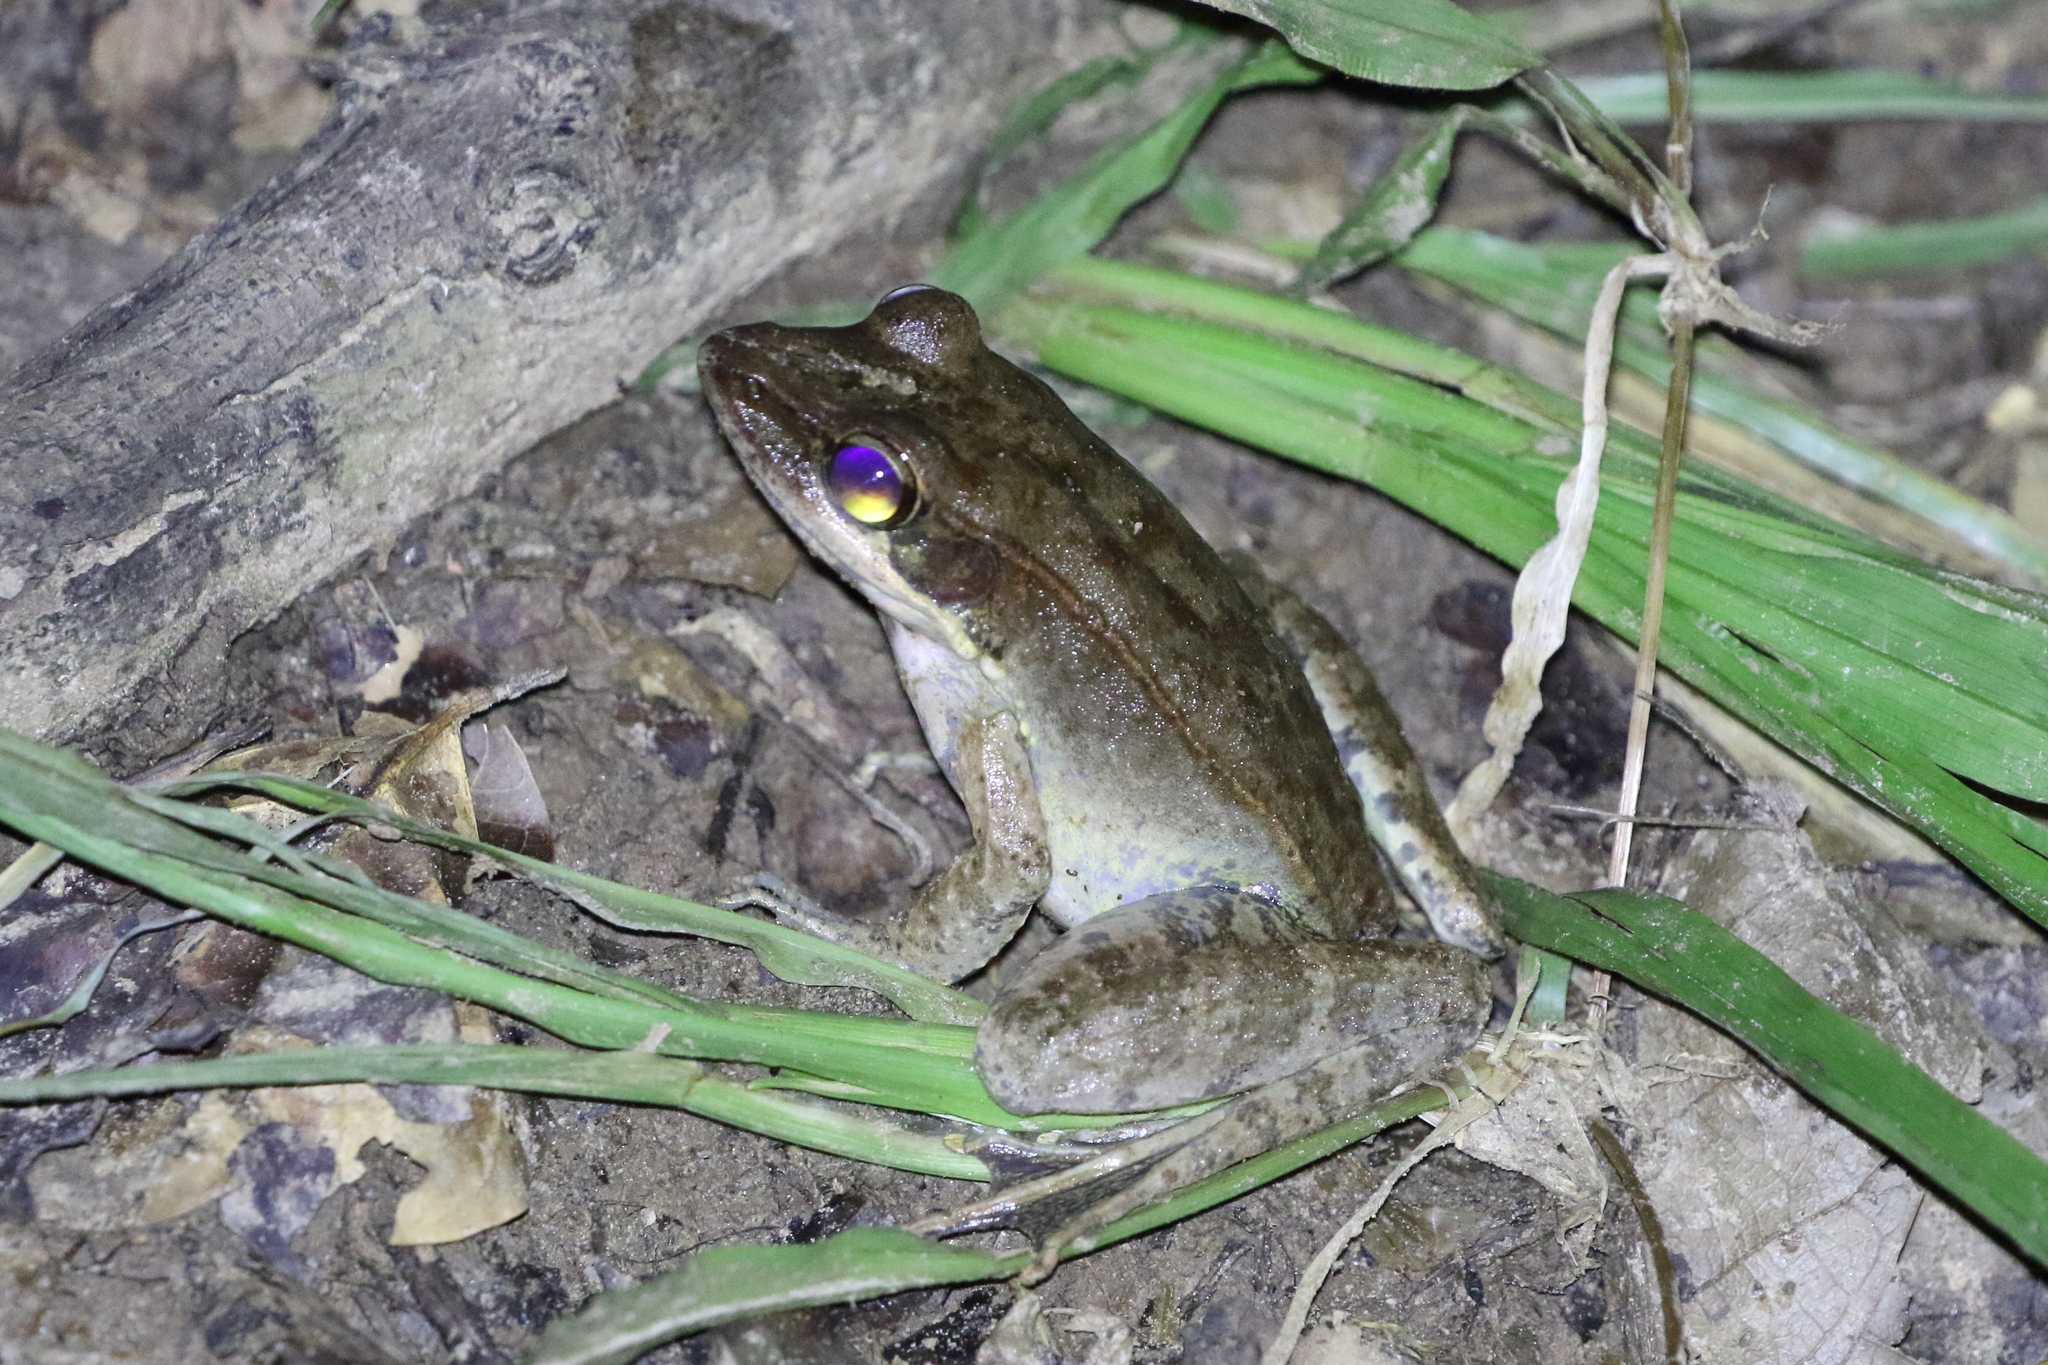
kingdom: Animalia
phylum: Chordata
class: Amphibia
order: Anura
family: Ranidae
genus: Papurana
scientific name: Papurana daemeli
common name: Arhem rana
